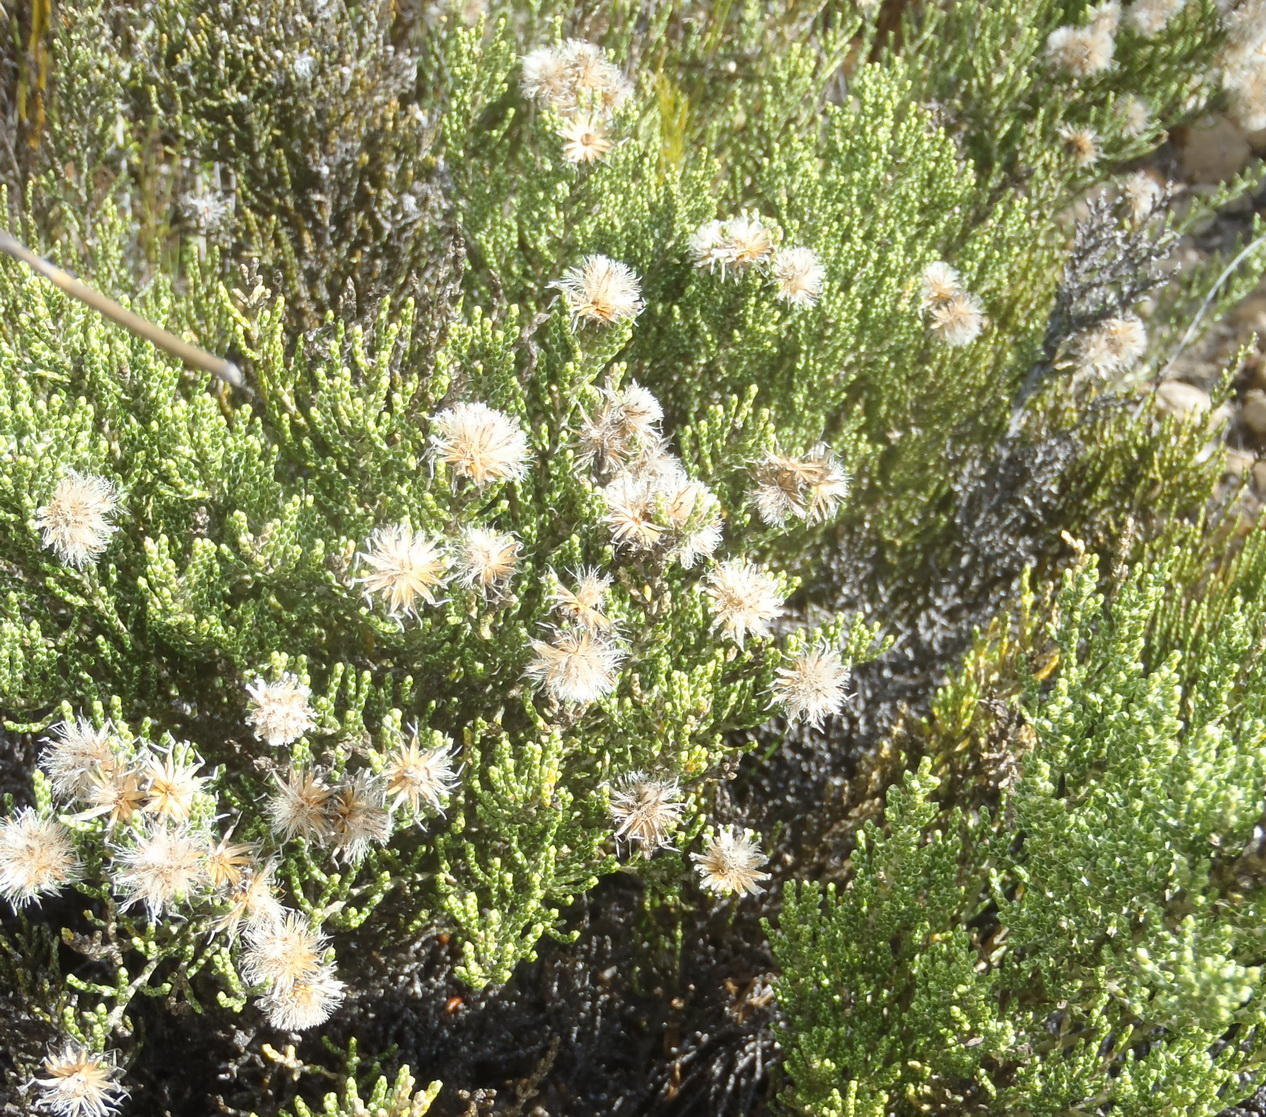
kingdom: Plantae
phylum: Tracheophyta
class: Magnoliopsida
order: Asterales
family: Asteraceae
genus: Dolichothrix
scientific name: Dolichothrix ericoides
